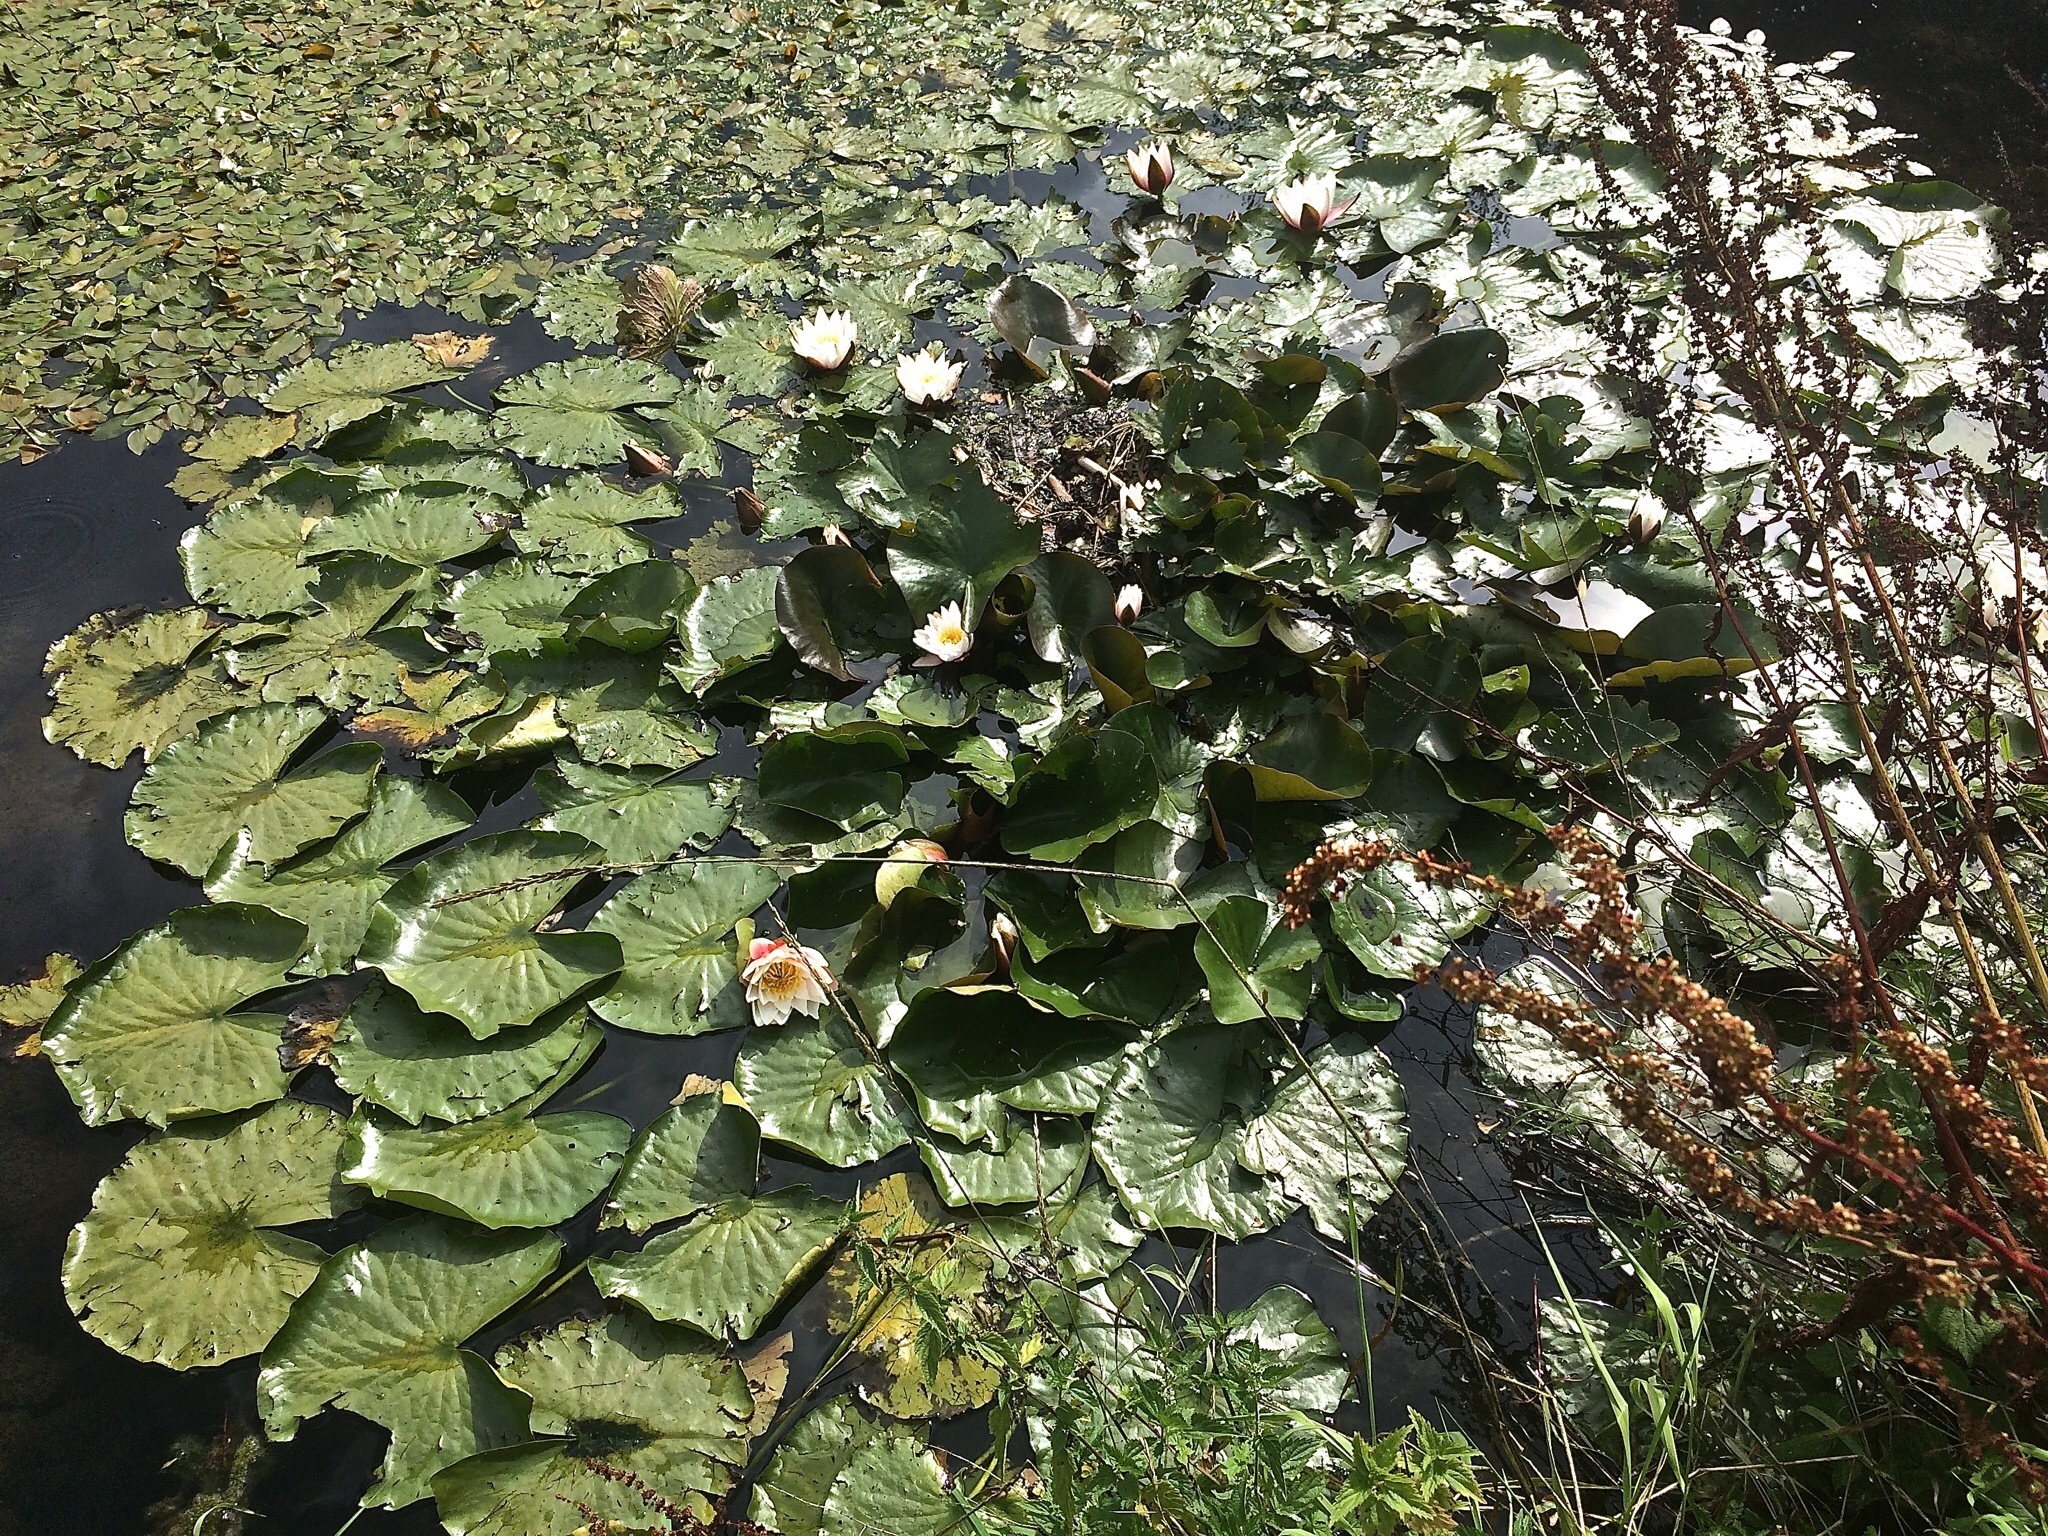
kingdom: Plantae
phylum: Tracheophyta
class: Magnoliopsida
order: Nymphaeales
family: Nymphaeaceae
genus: Nymphaea
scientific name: Nymphaea alba
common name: White water-lily
